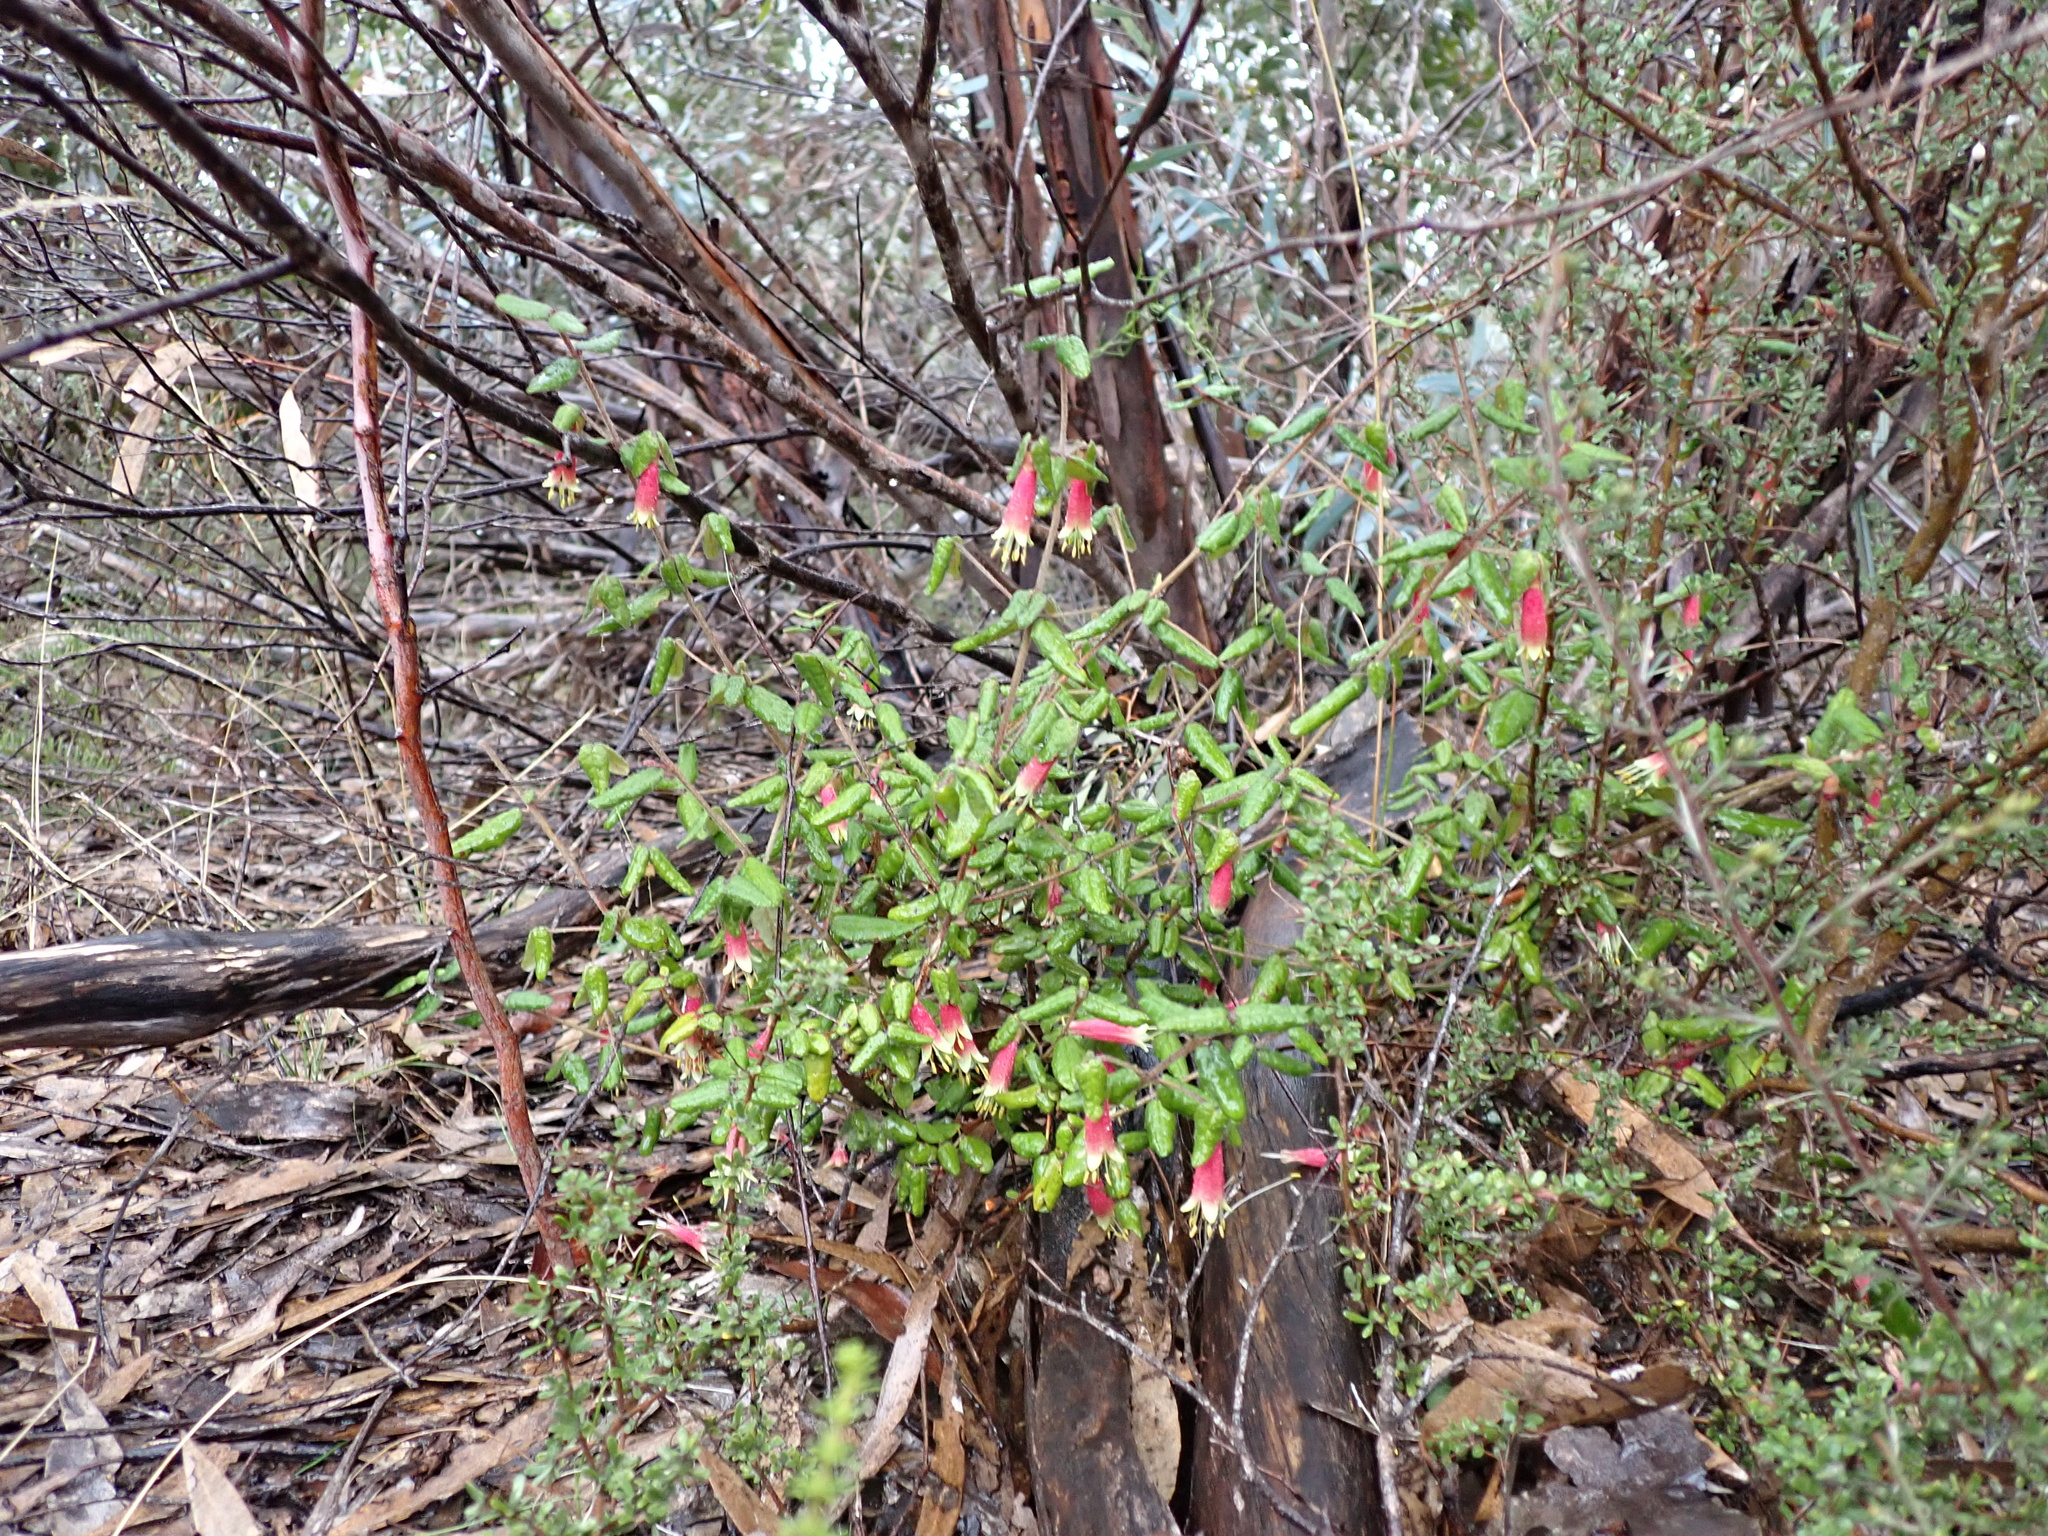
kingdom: Plantae
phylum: Tracheophyta
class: Magnoliopsida
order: Sapindales
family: Rutaceae
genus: Correa
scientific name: Correa reflexa
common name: Common correa
